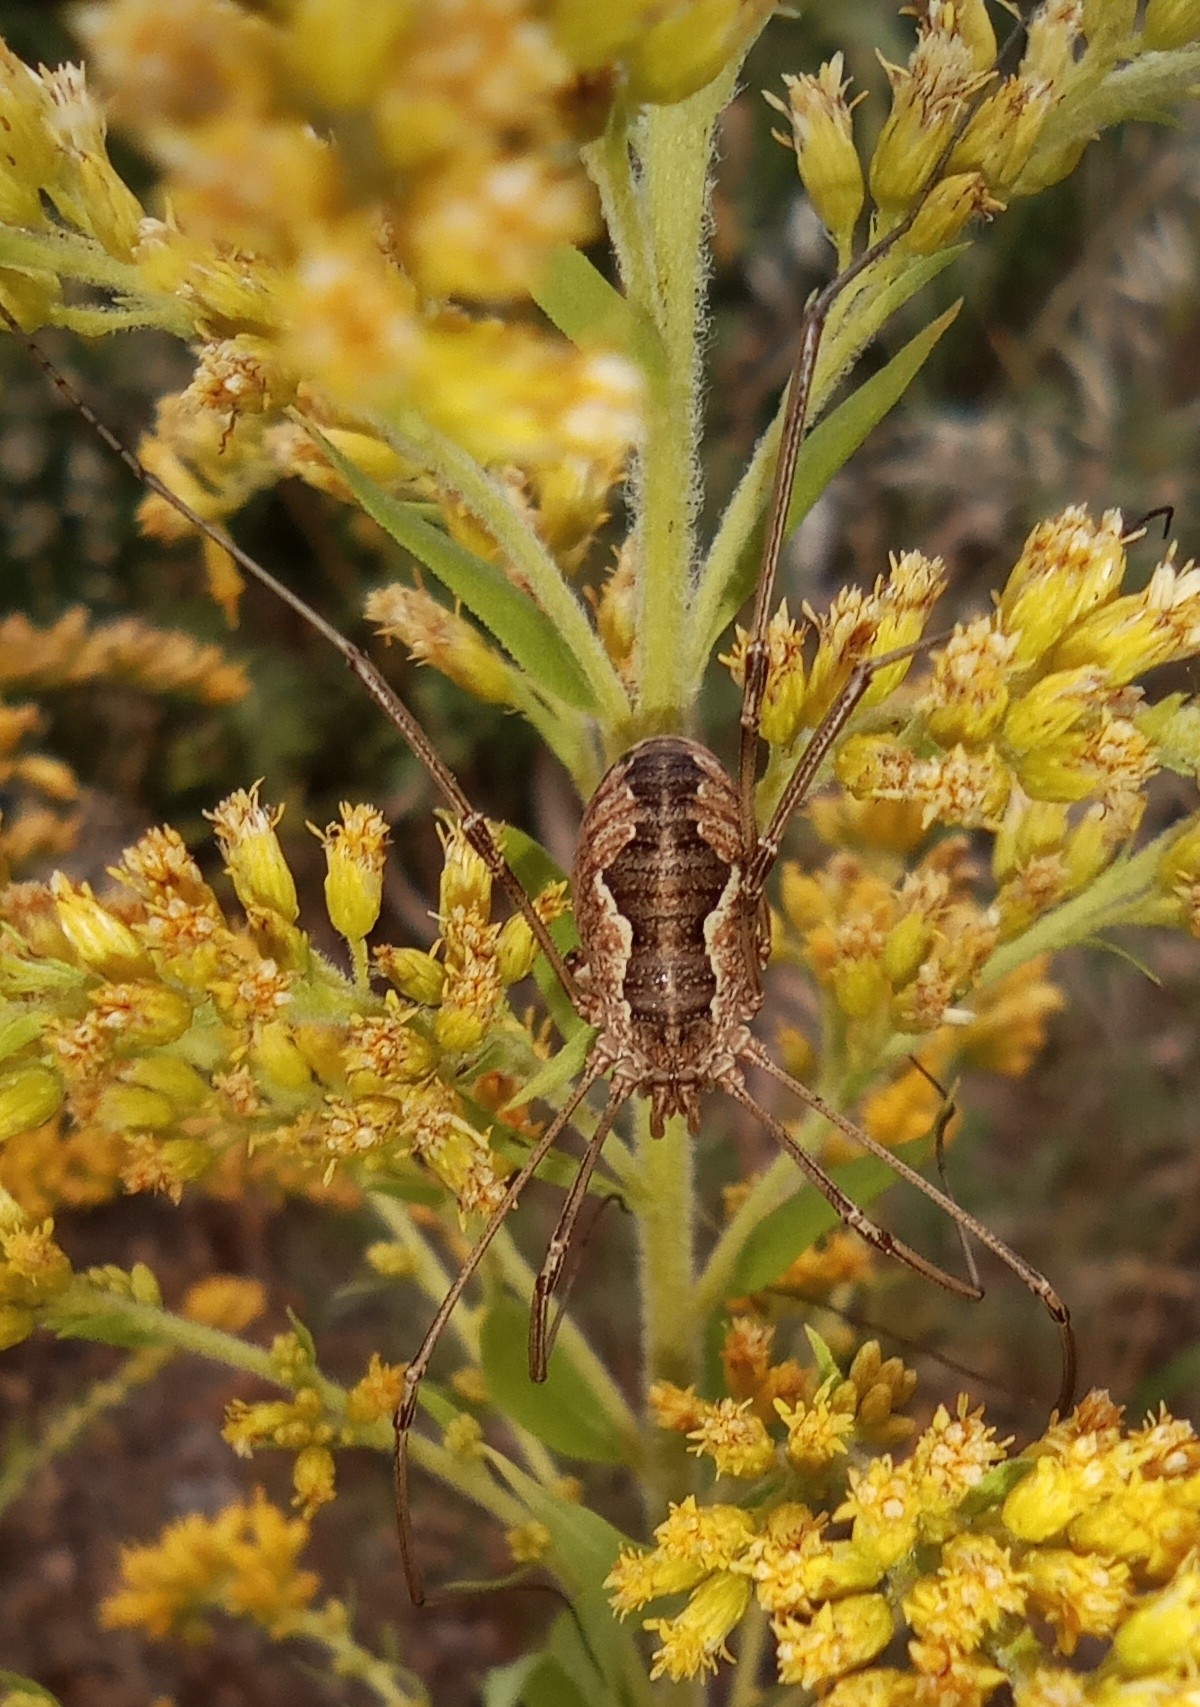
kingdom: Animalia
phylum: Arthropoda
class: Arachnida
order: Opiliones
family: Phalangiidae
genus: Phalangium
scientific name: Phalangium opilio
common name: Daddy longleg
